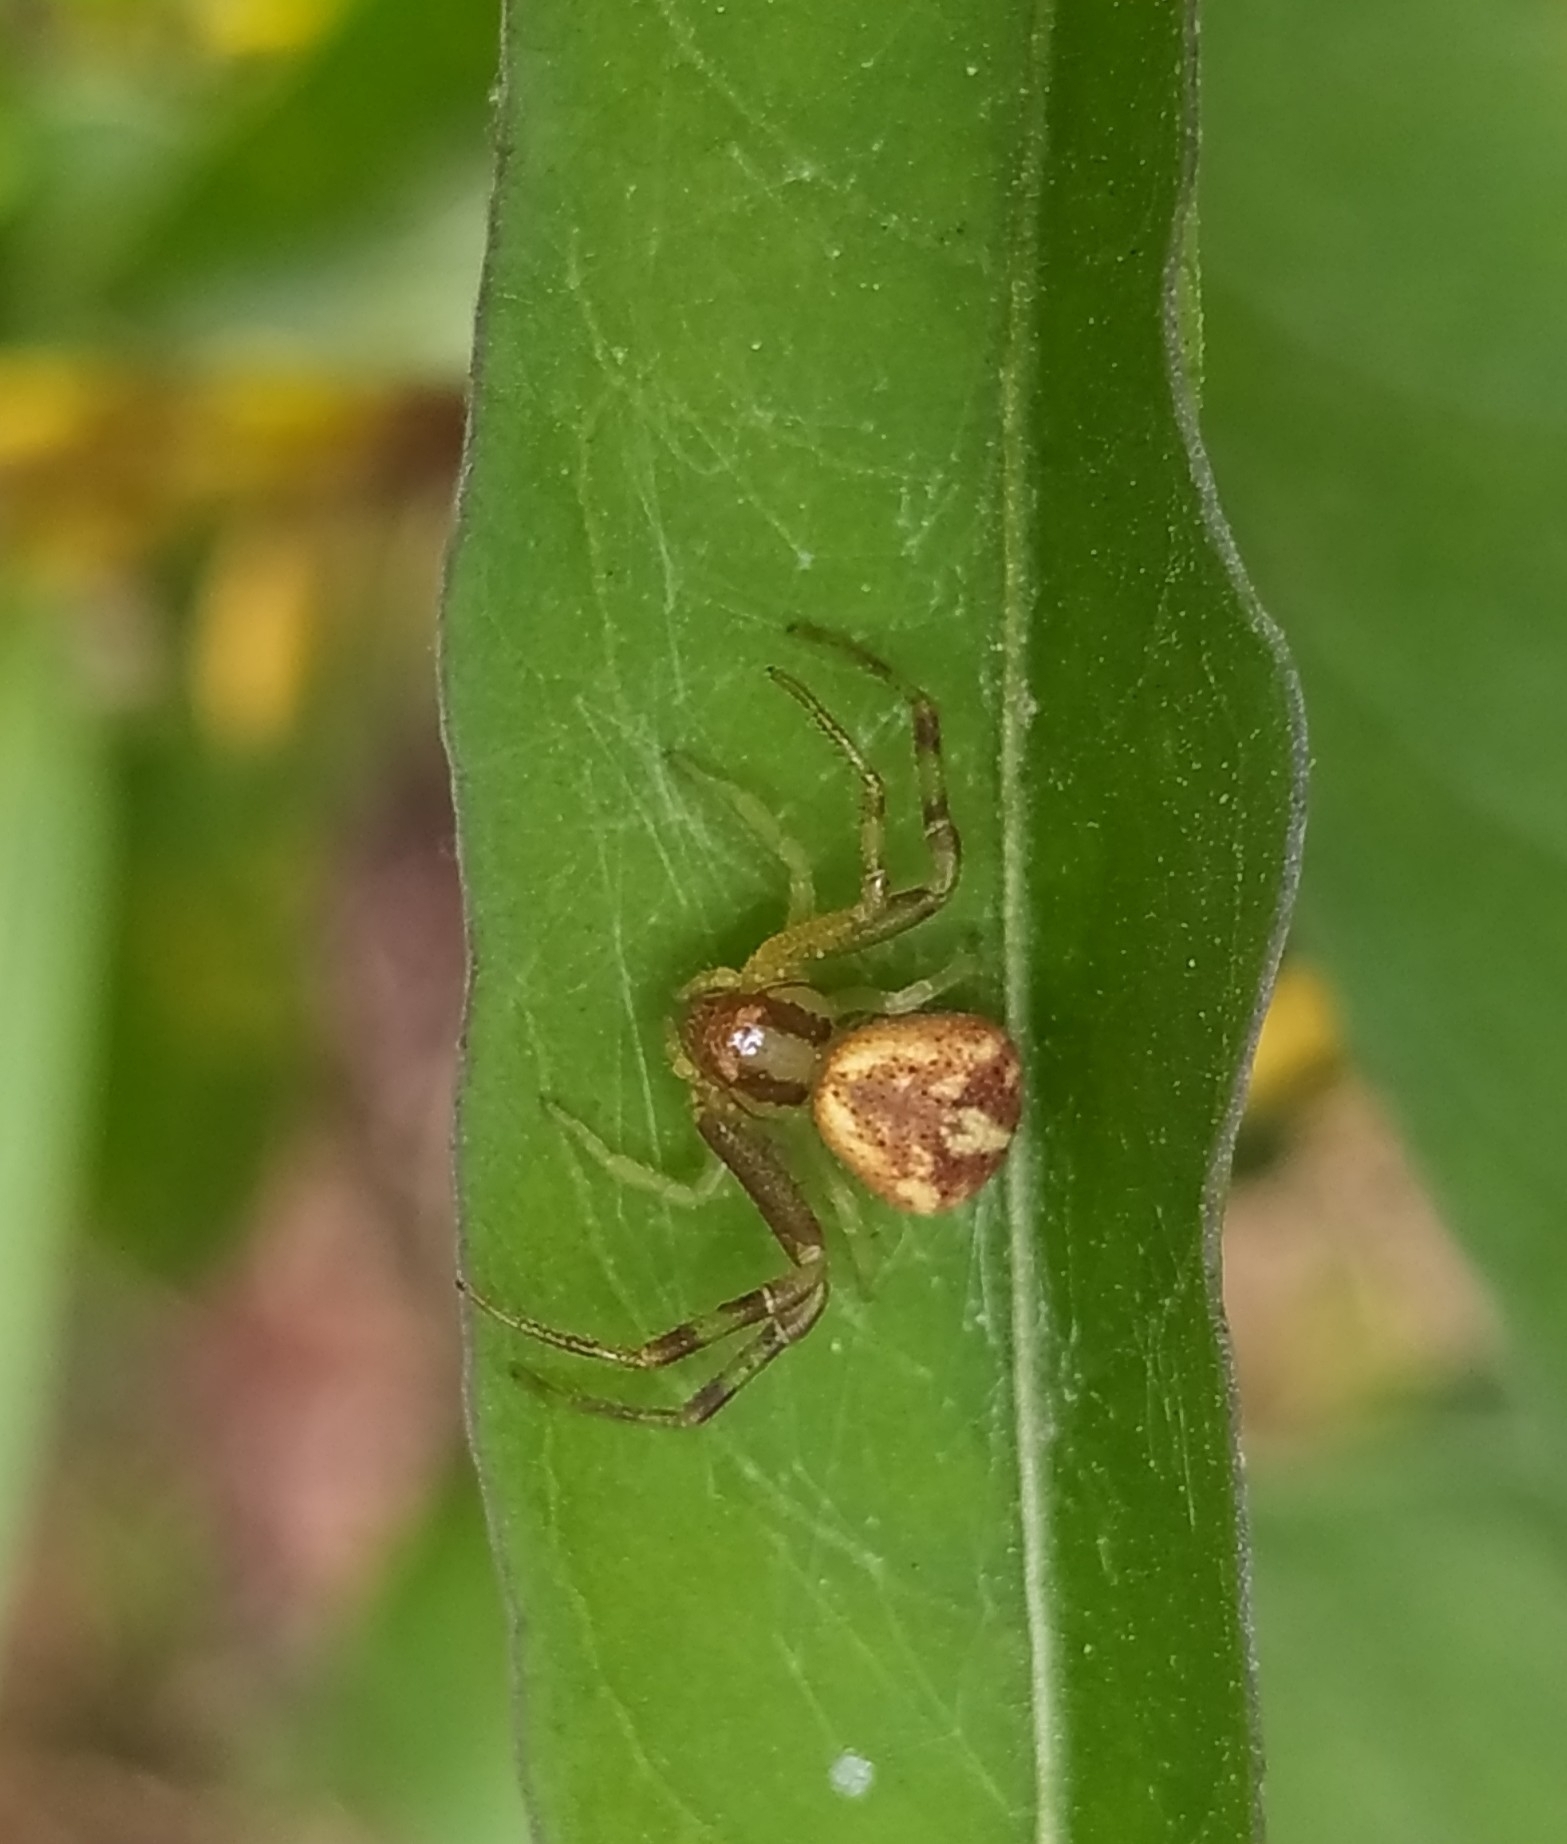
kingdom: Animalia
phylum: Arthropoda
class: Arachnida
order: Araneae
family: Thomisidae
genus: Misumenops
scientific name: Misumenops
